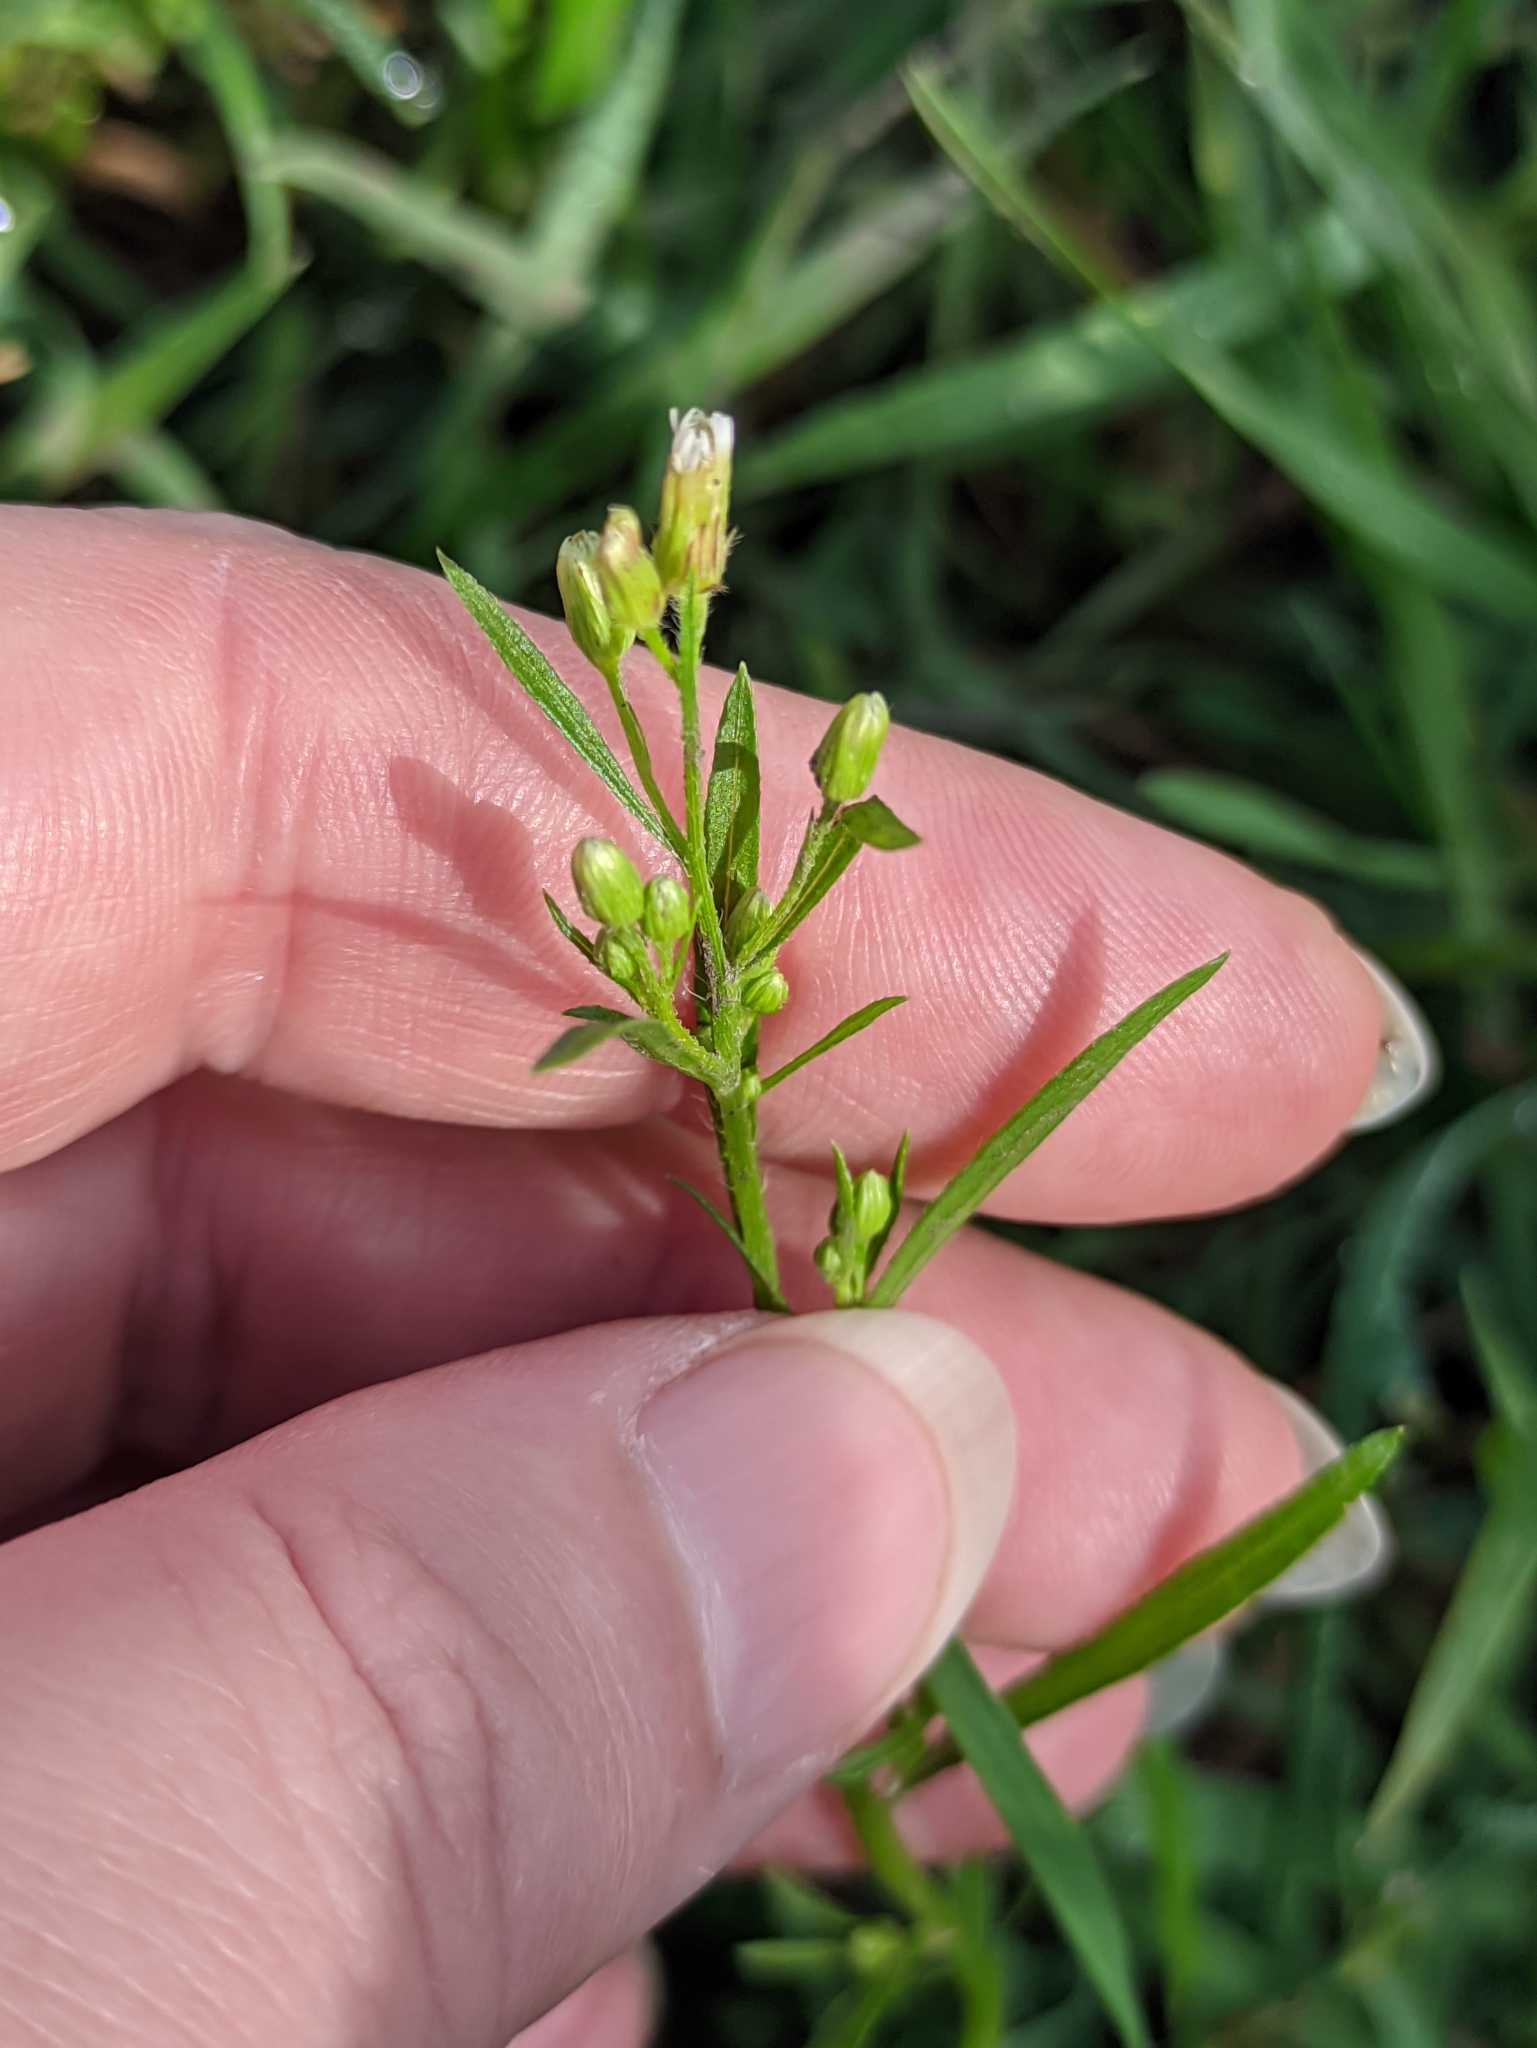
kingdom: Plantae
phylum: Tracheophyta
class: Magnoliopsida
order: Asterales
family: Asteraceae
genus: Erigeron
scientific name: Erigeron canadensis
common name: Canadian fleabane
